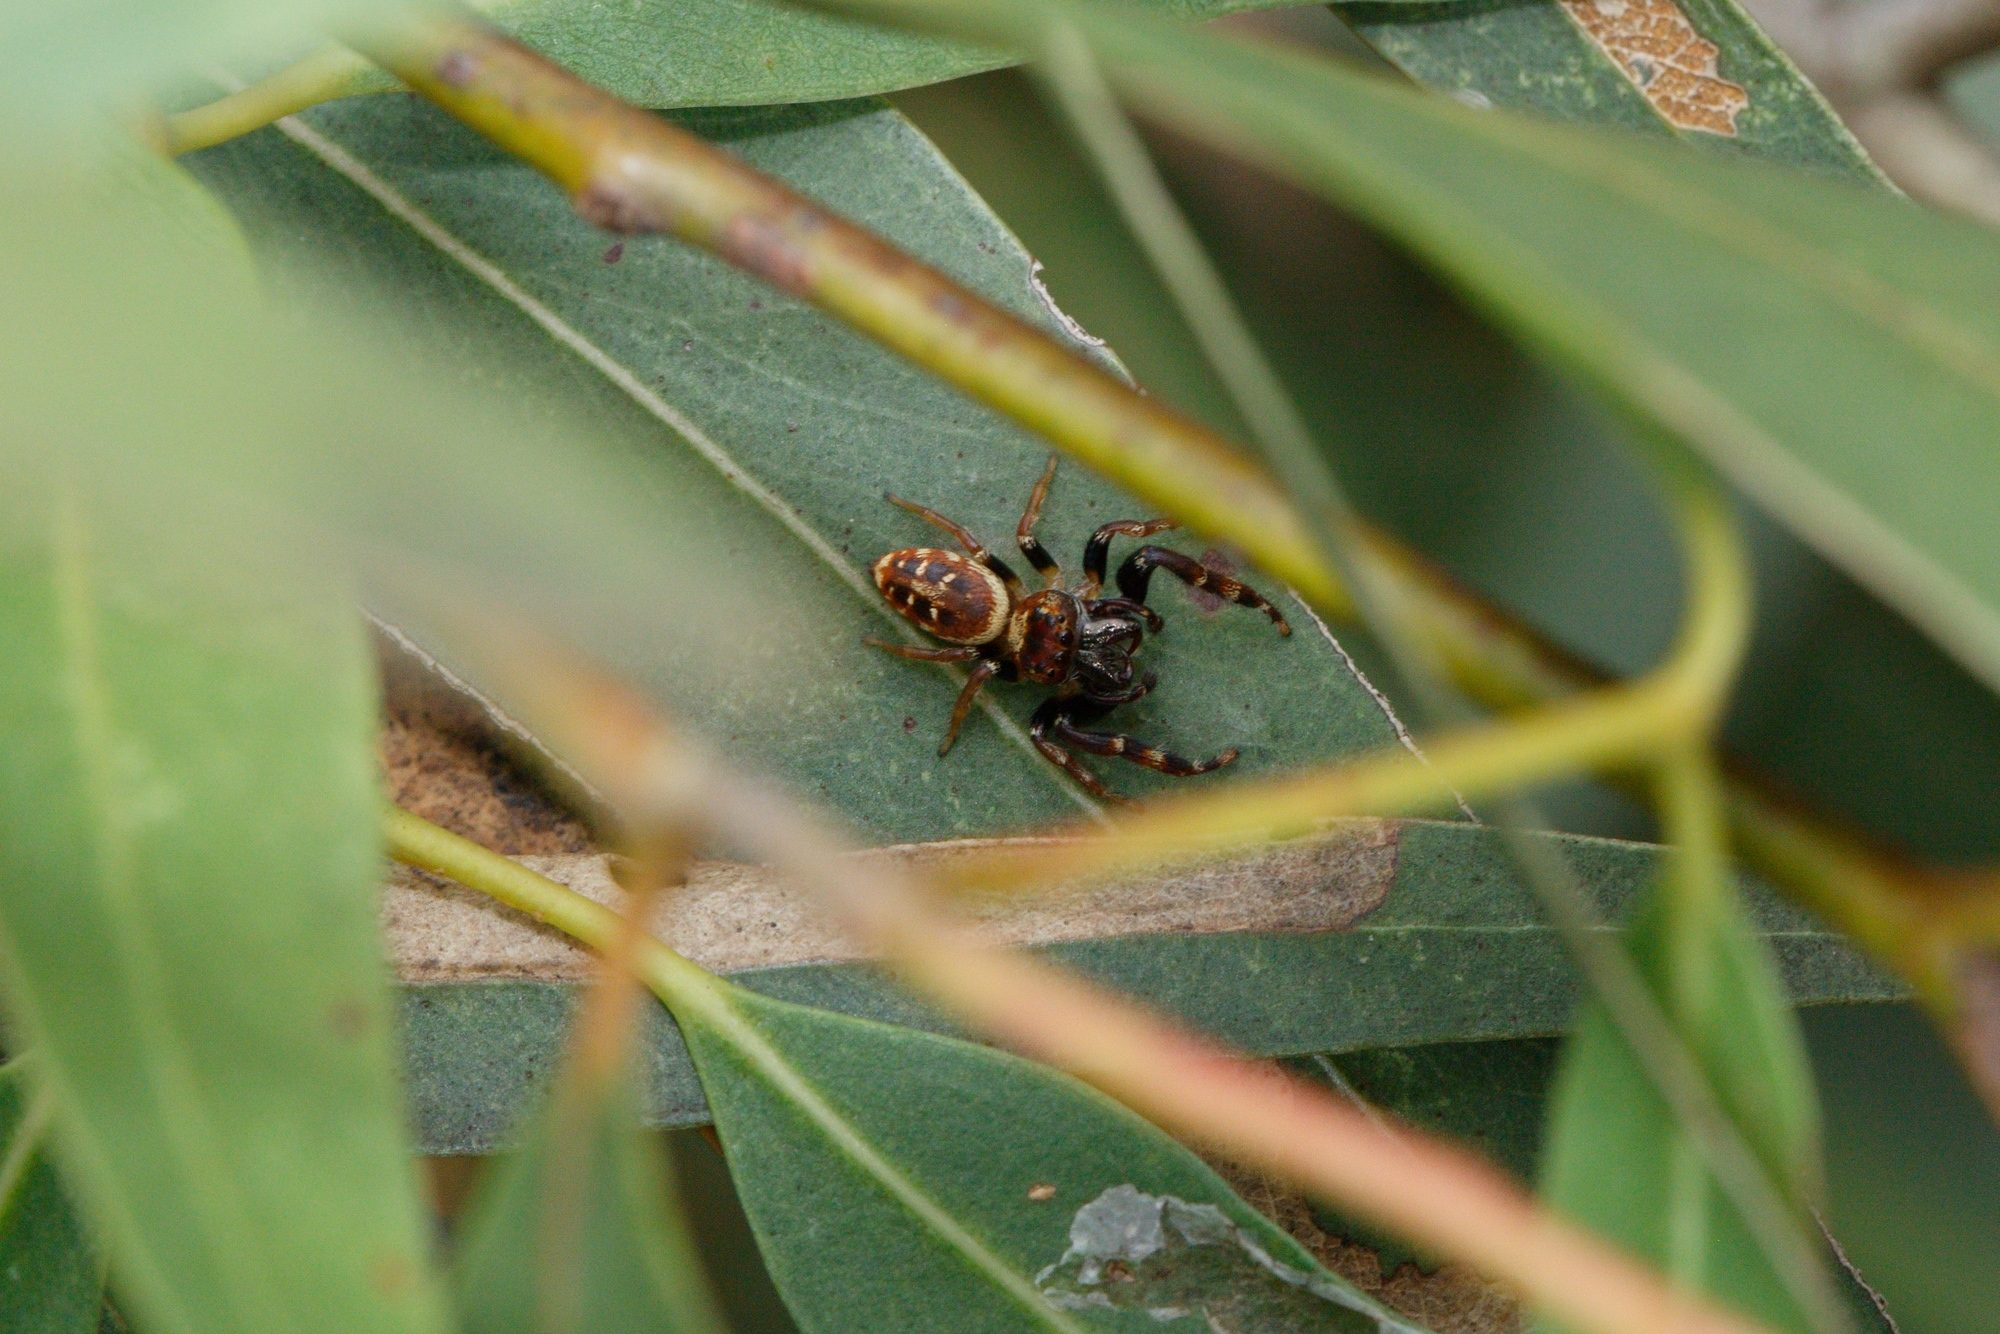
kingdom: Animalia
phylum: Arthropoda
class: Arachnida
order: Araneae
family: Salticidae
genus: Opisthoncus
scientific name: Opisthoncus sexmaculatus
